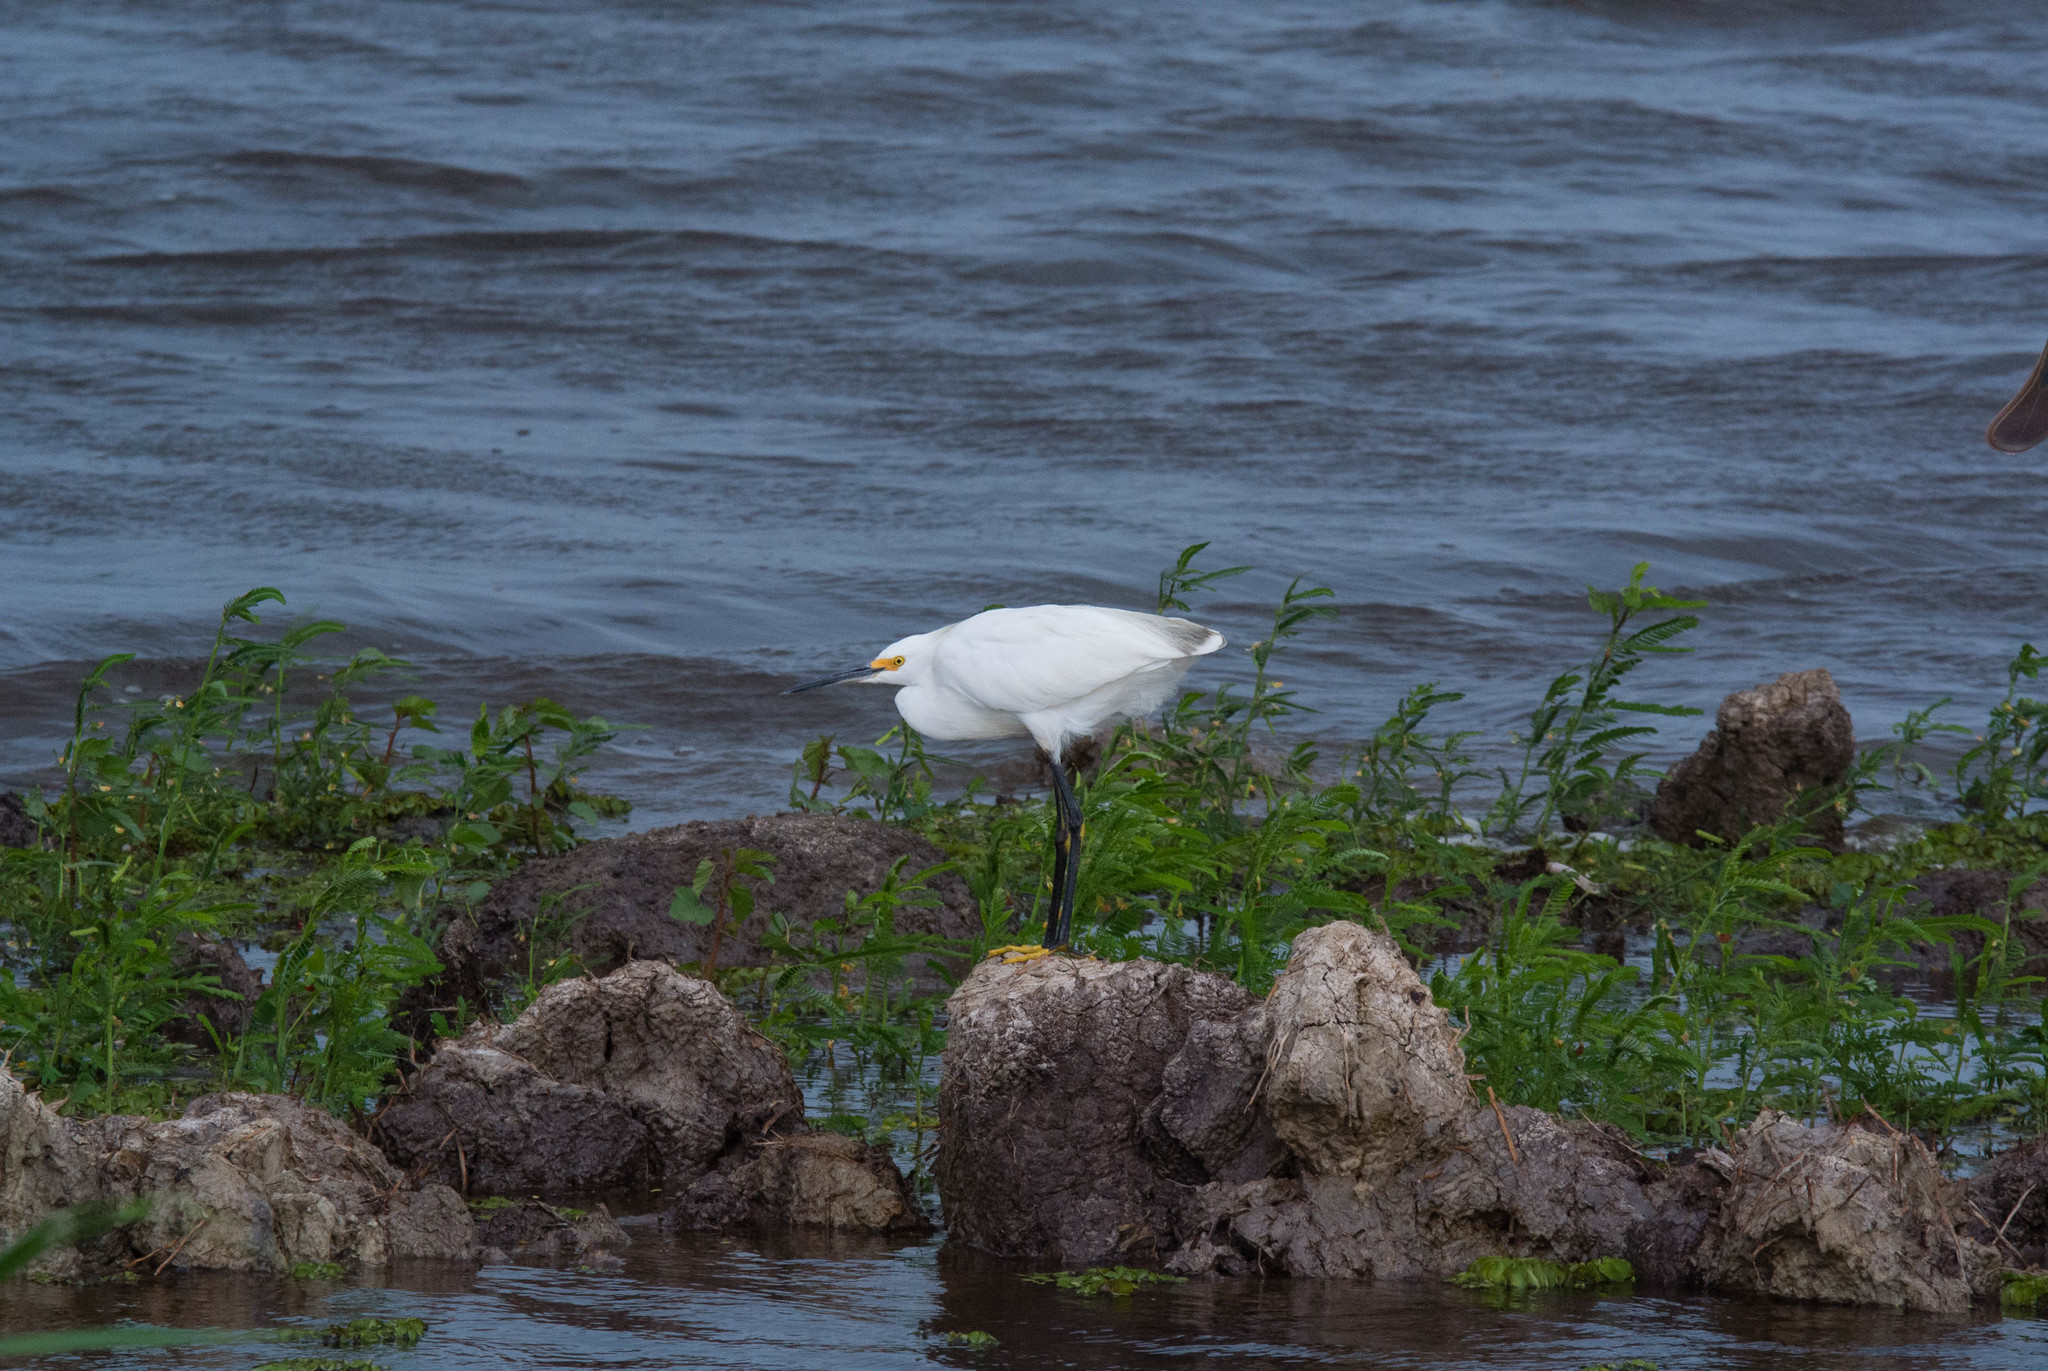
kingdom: Animalia
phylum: Chordata
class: Aves
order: Pelecaniformes
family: Ardeidae
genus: Egretta
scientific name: Egretta thula
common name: Snowy egret
